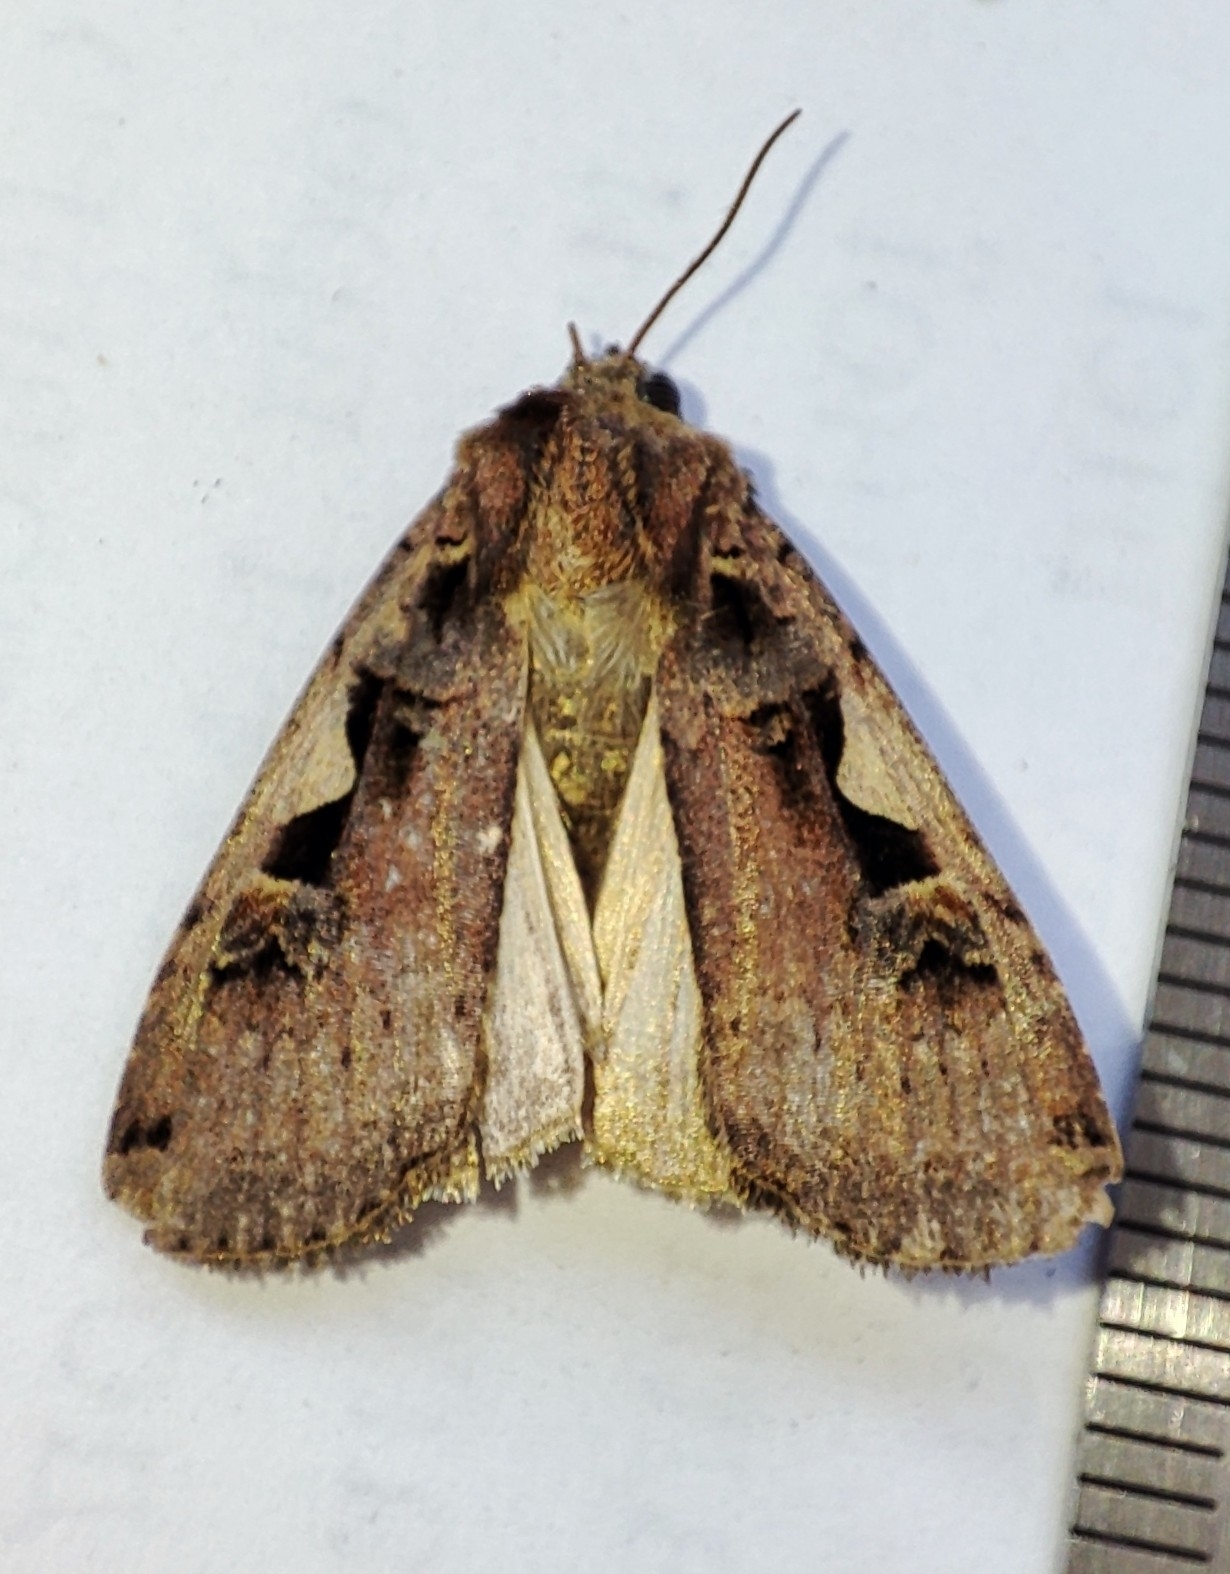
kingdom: Animalia
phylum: Arthropoda
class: Insecta
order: Lepidoptera
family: Noctuidae
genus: Xestia
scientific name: Xestia c-nigrum
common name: Setaceous hebrew character
